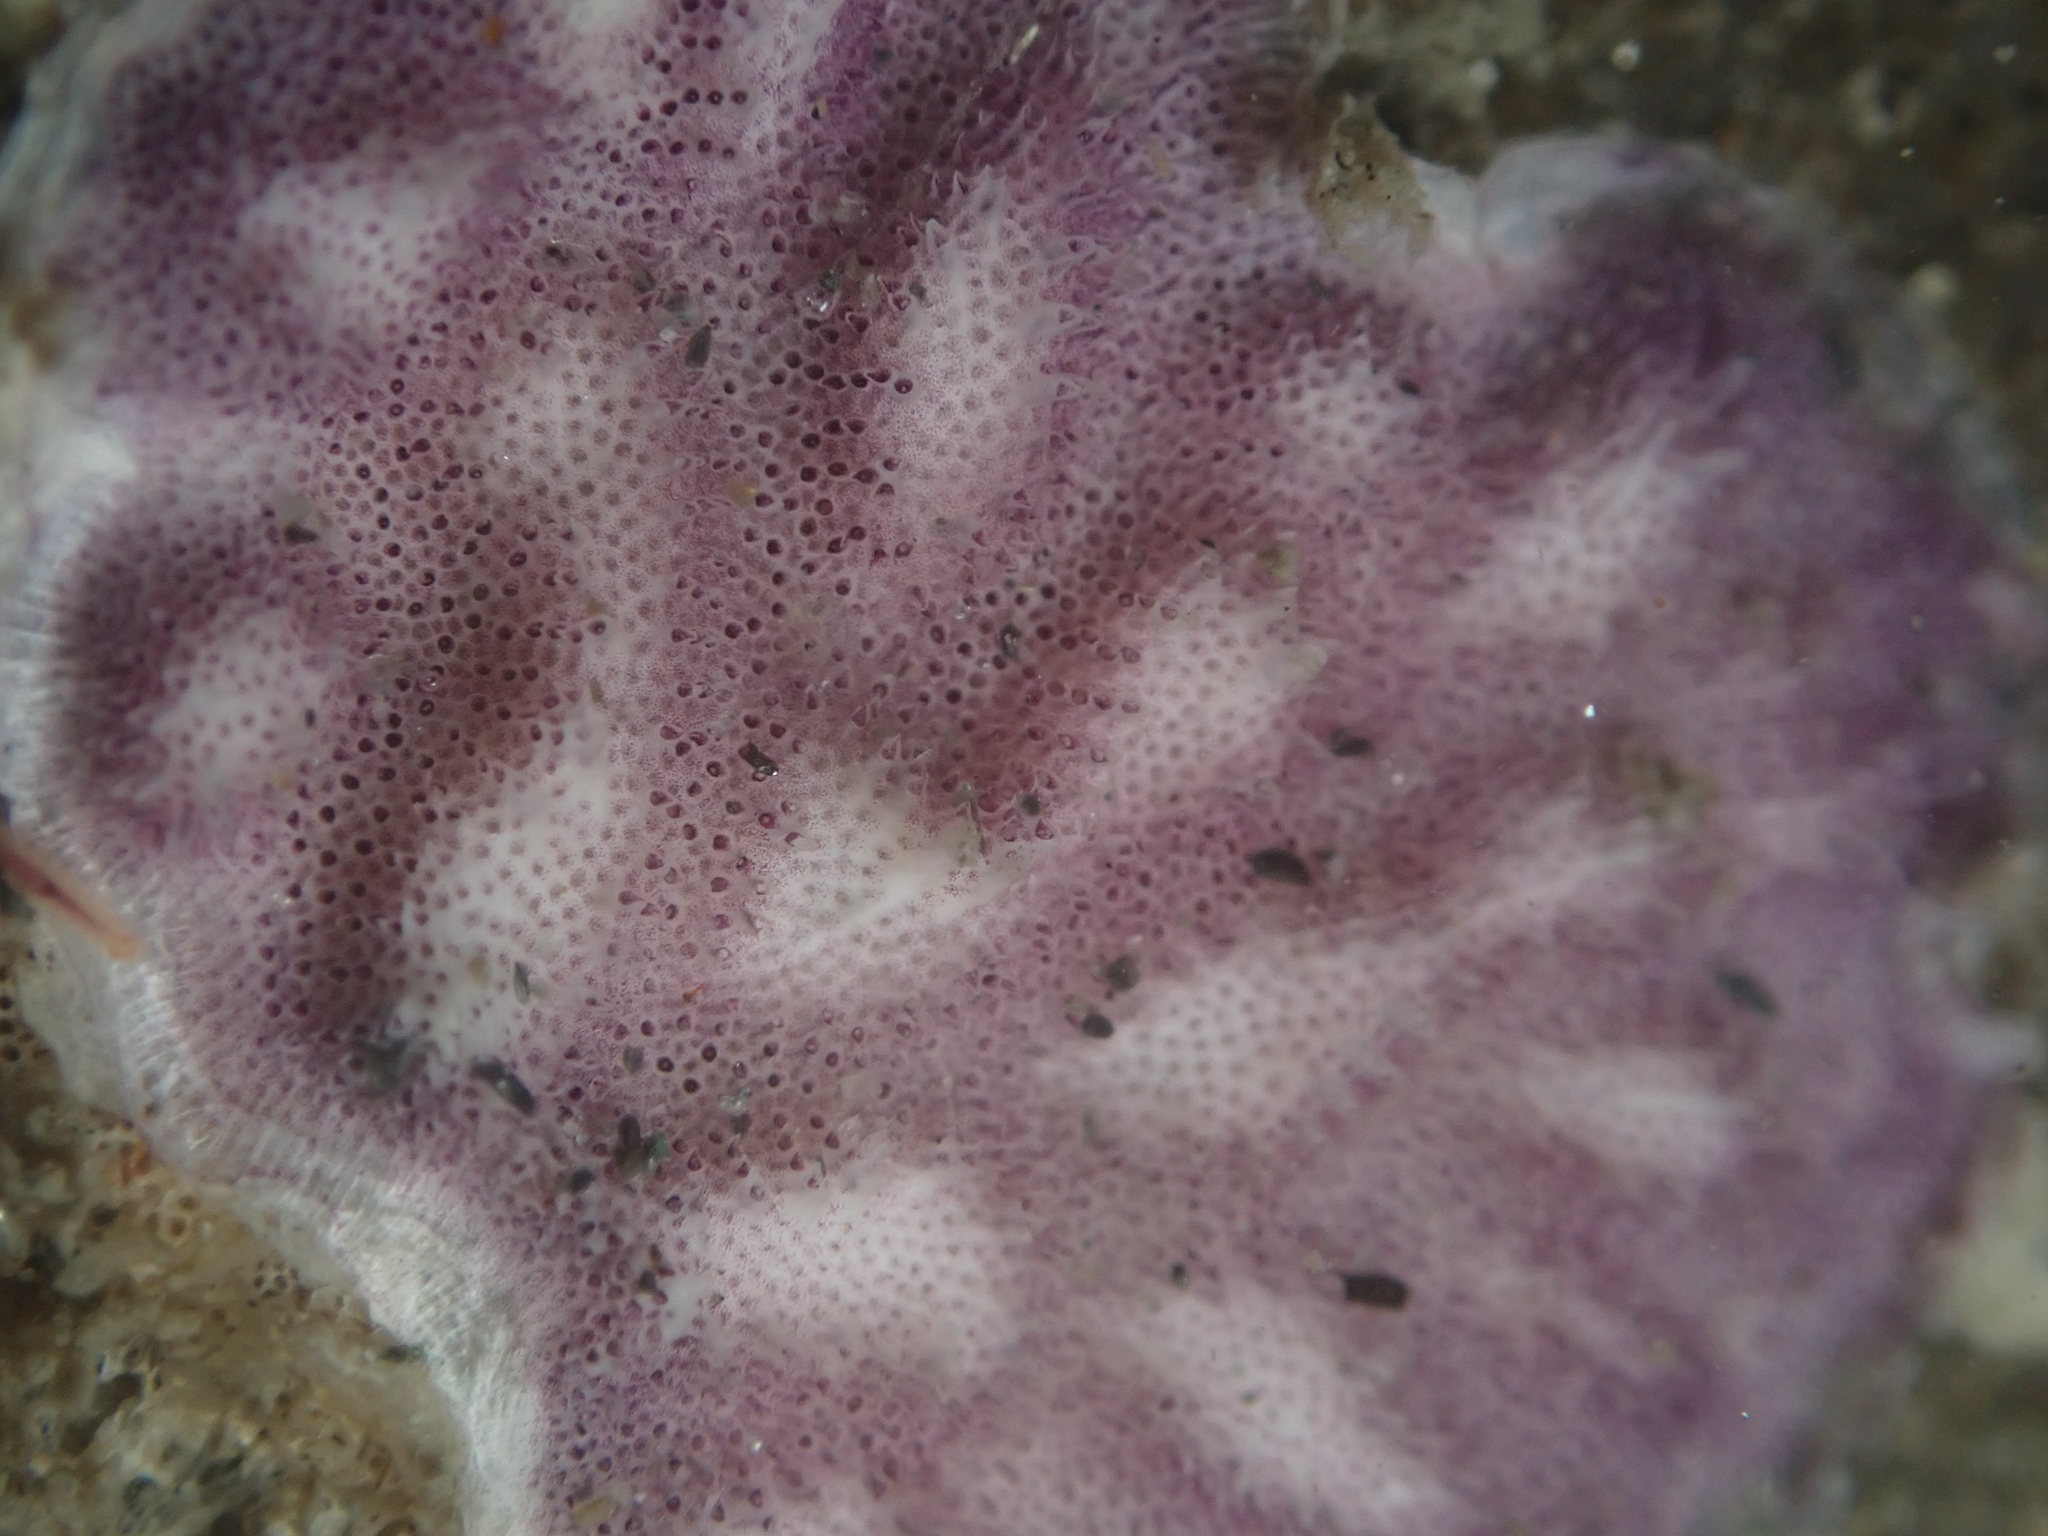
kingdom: Animalia
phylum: Bryozoa
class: Stenolaemata
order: Cyclostomatida
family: Lichenoporidae
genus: Disporella
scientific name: Disporella separata
